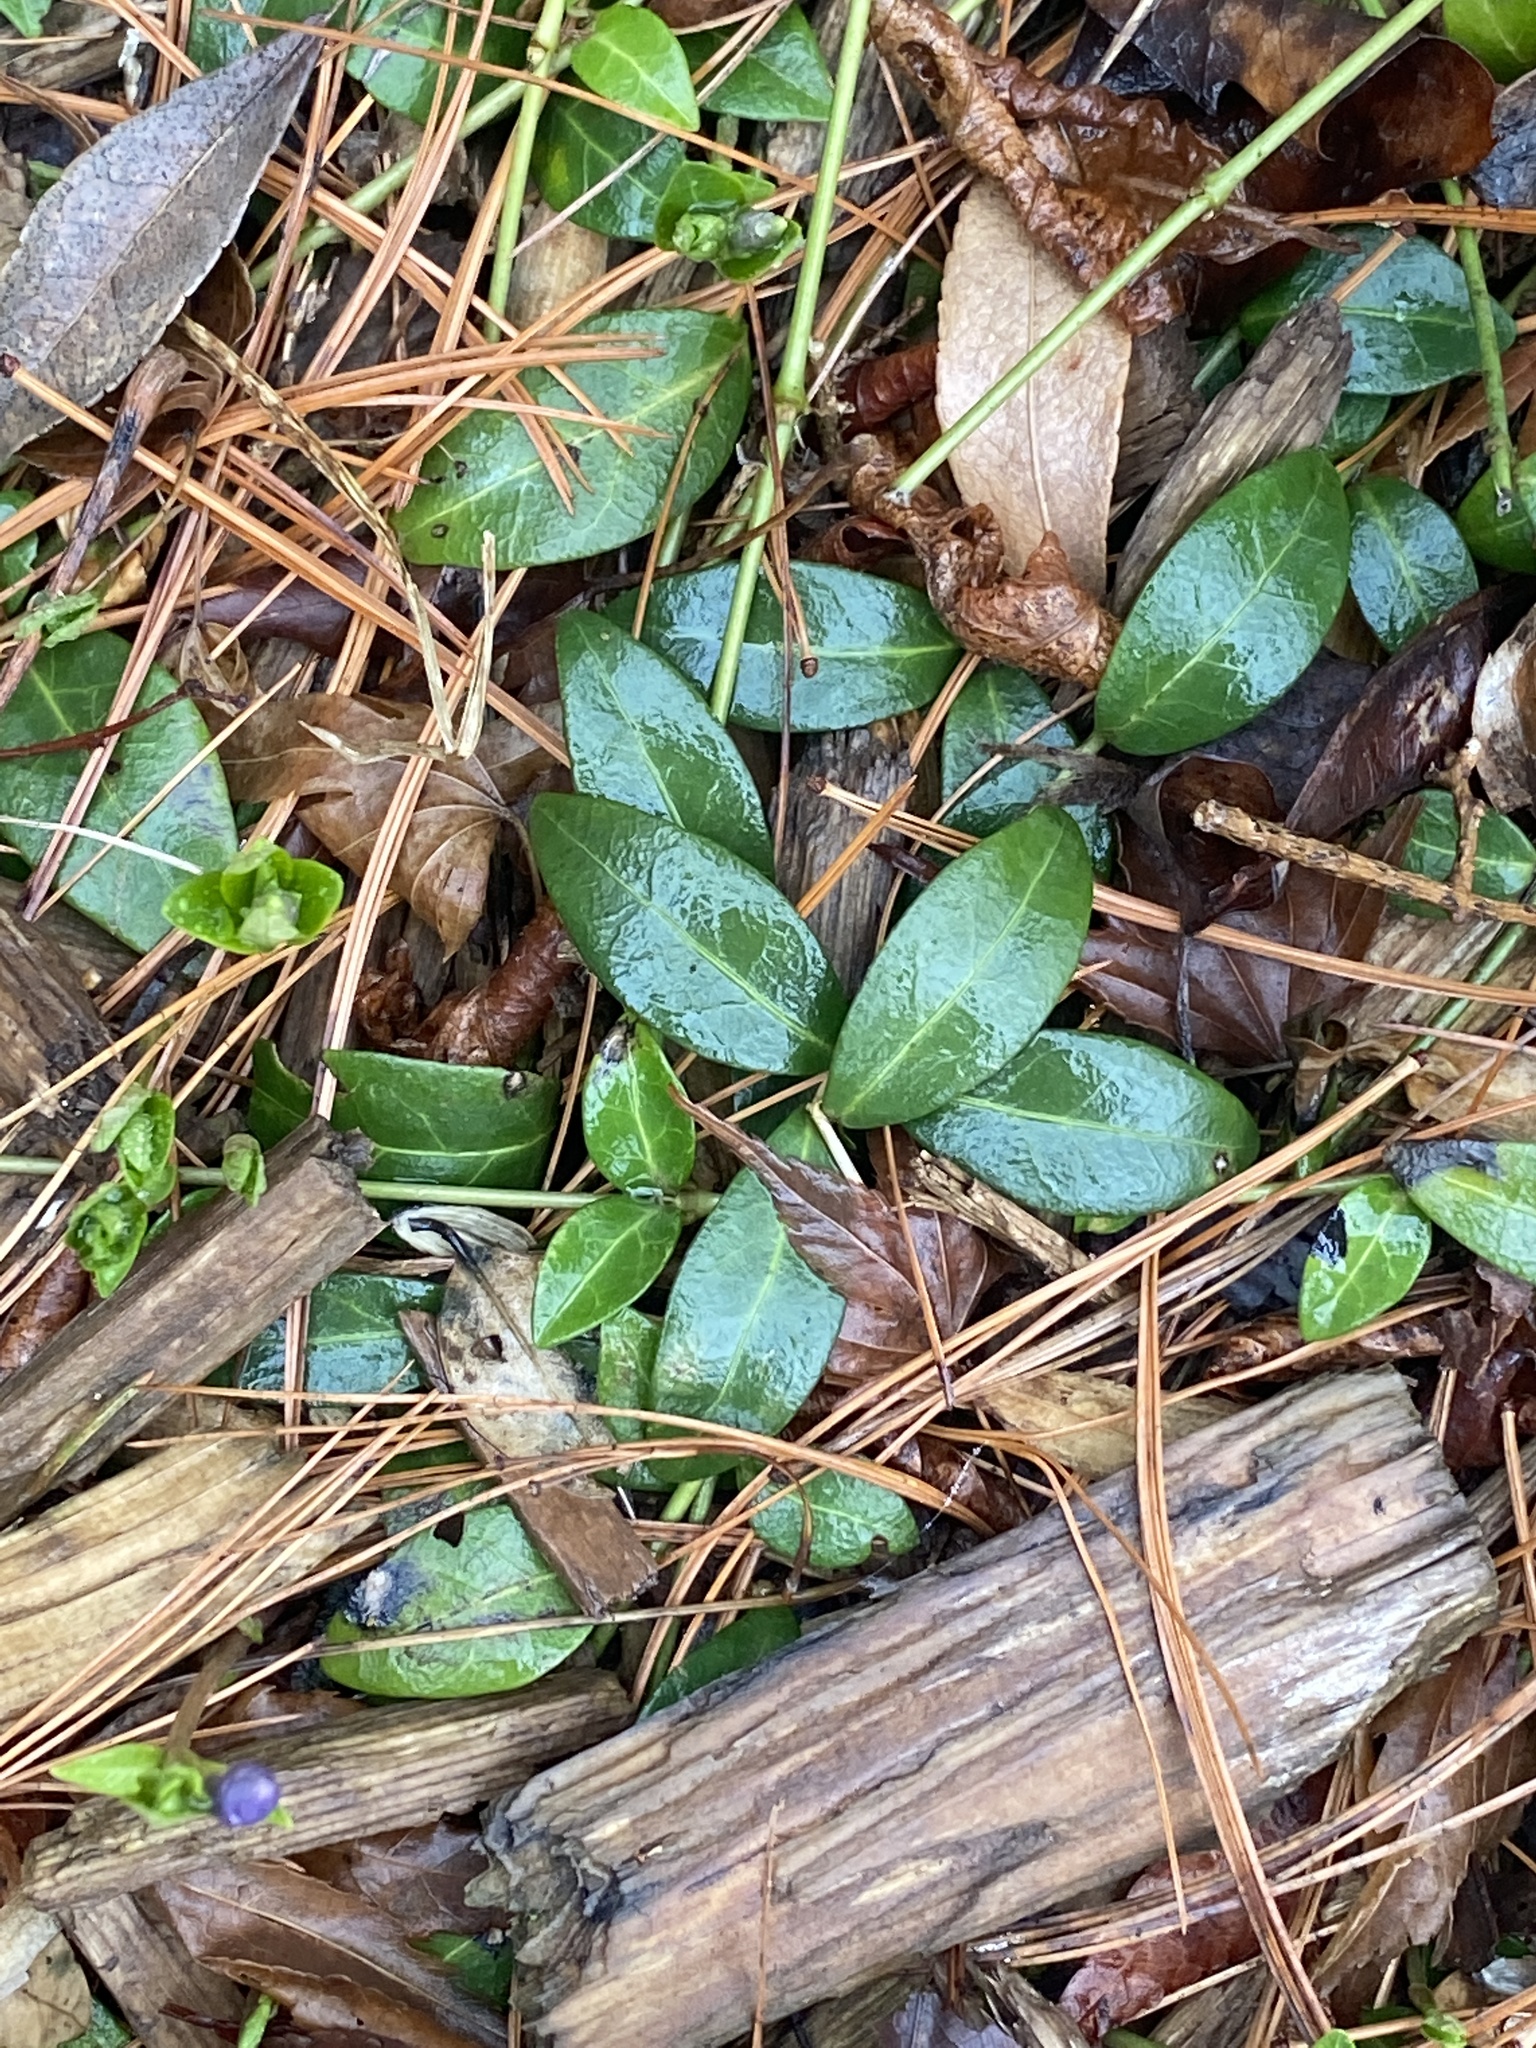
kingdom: Plantae
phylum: Tracheophyta
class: Magnoliopsida
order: Gentianales
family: Apocynaceae
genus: Vinca
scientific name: Vinca minor
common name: Lesser periwinkle
